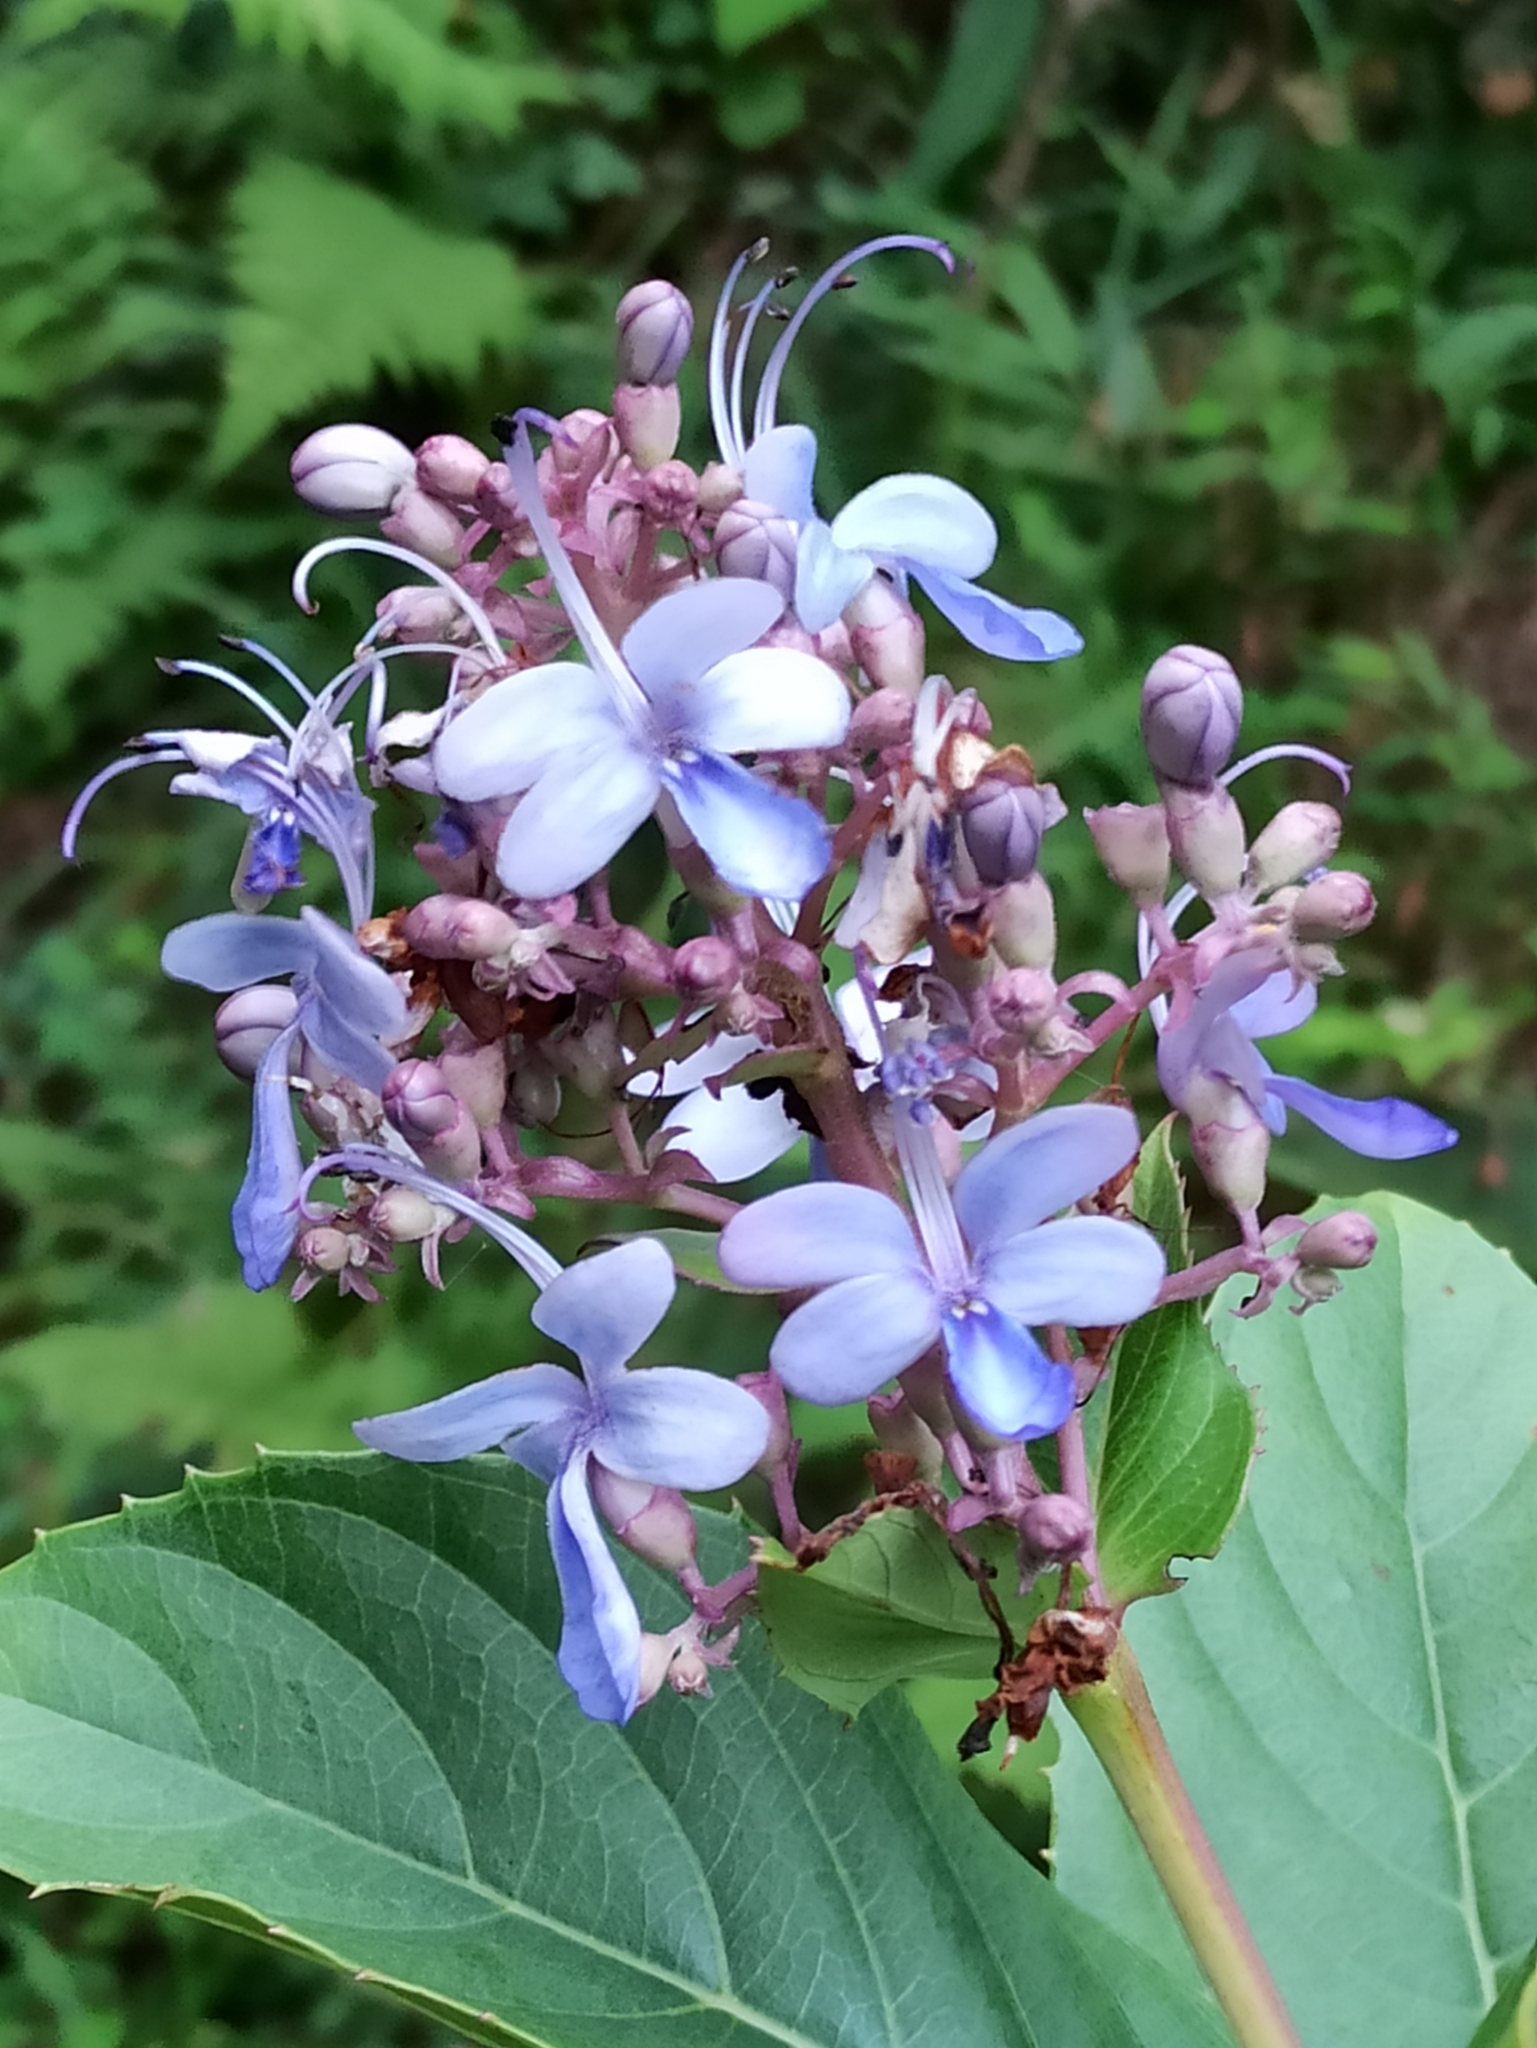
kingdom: Plantae
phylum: Tracheophyta
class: Magnoliopsida
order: Lamiales
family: Lamiaceae
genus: Rotheca
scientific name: Rotheca serrata
